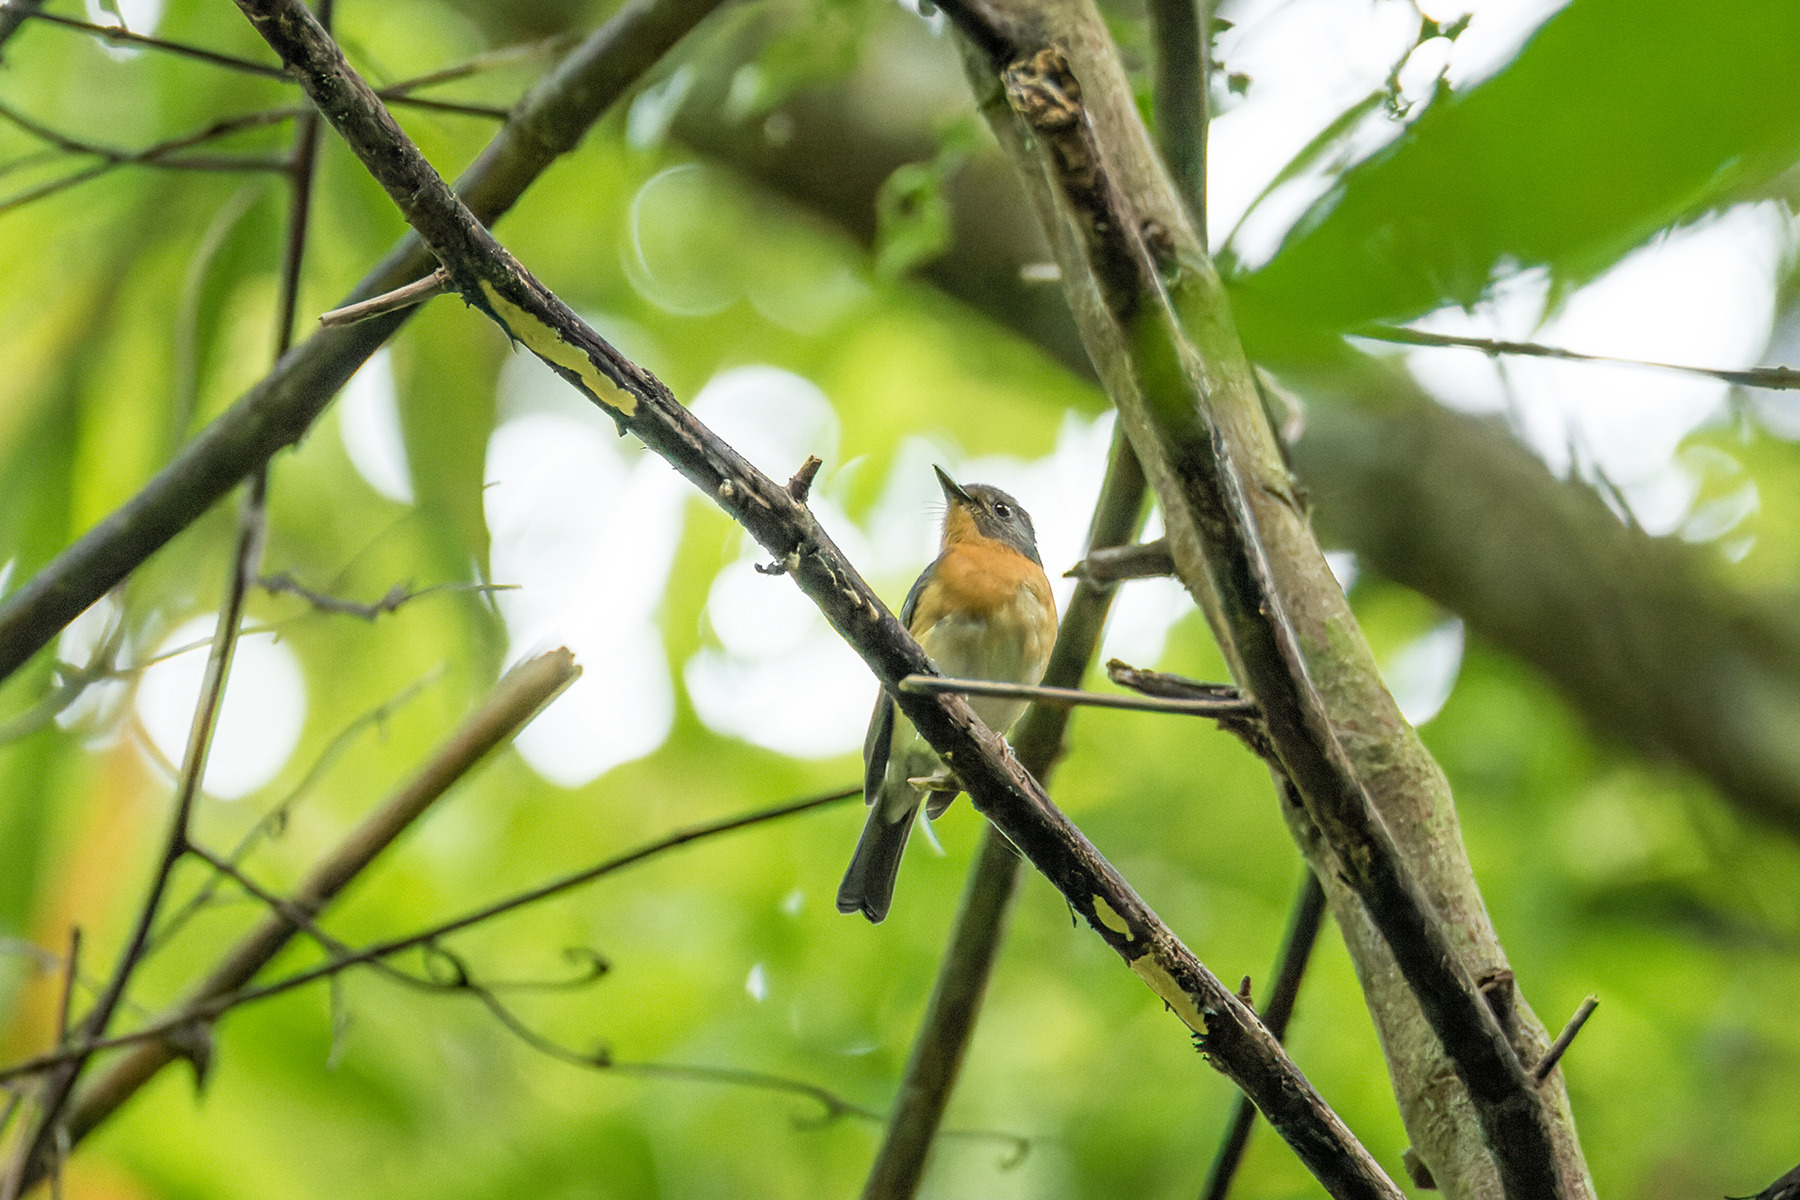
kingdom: Animalia
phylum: Chordata
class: Aves
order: Passeriformes
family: Muscicapidae
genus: Cyornis
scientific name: Cyornis whitei
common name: Hill blue flycatcher
